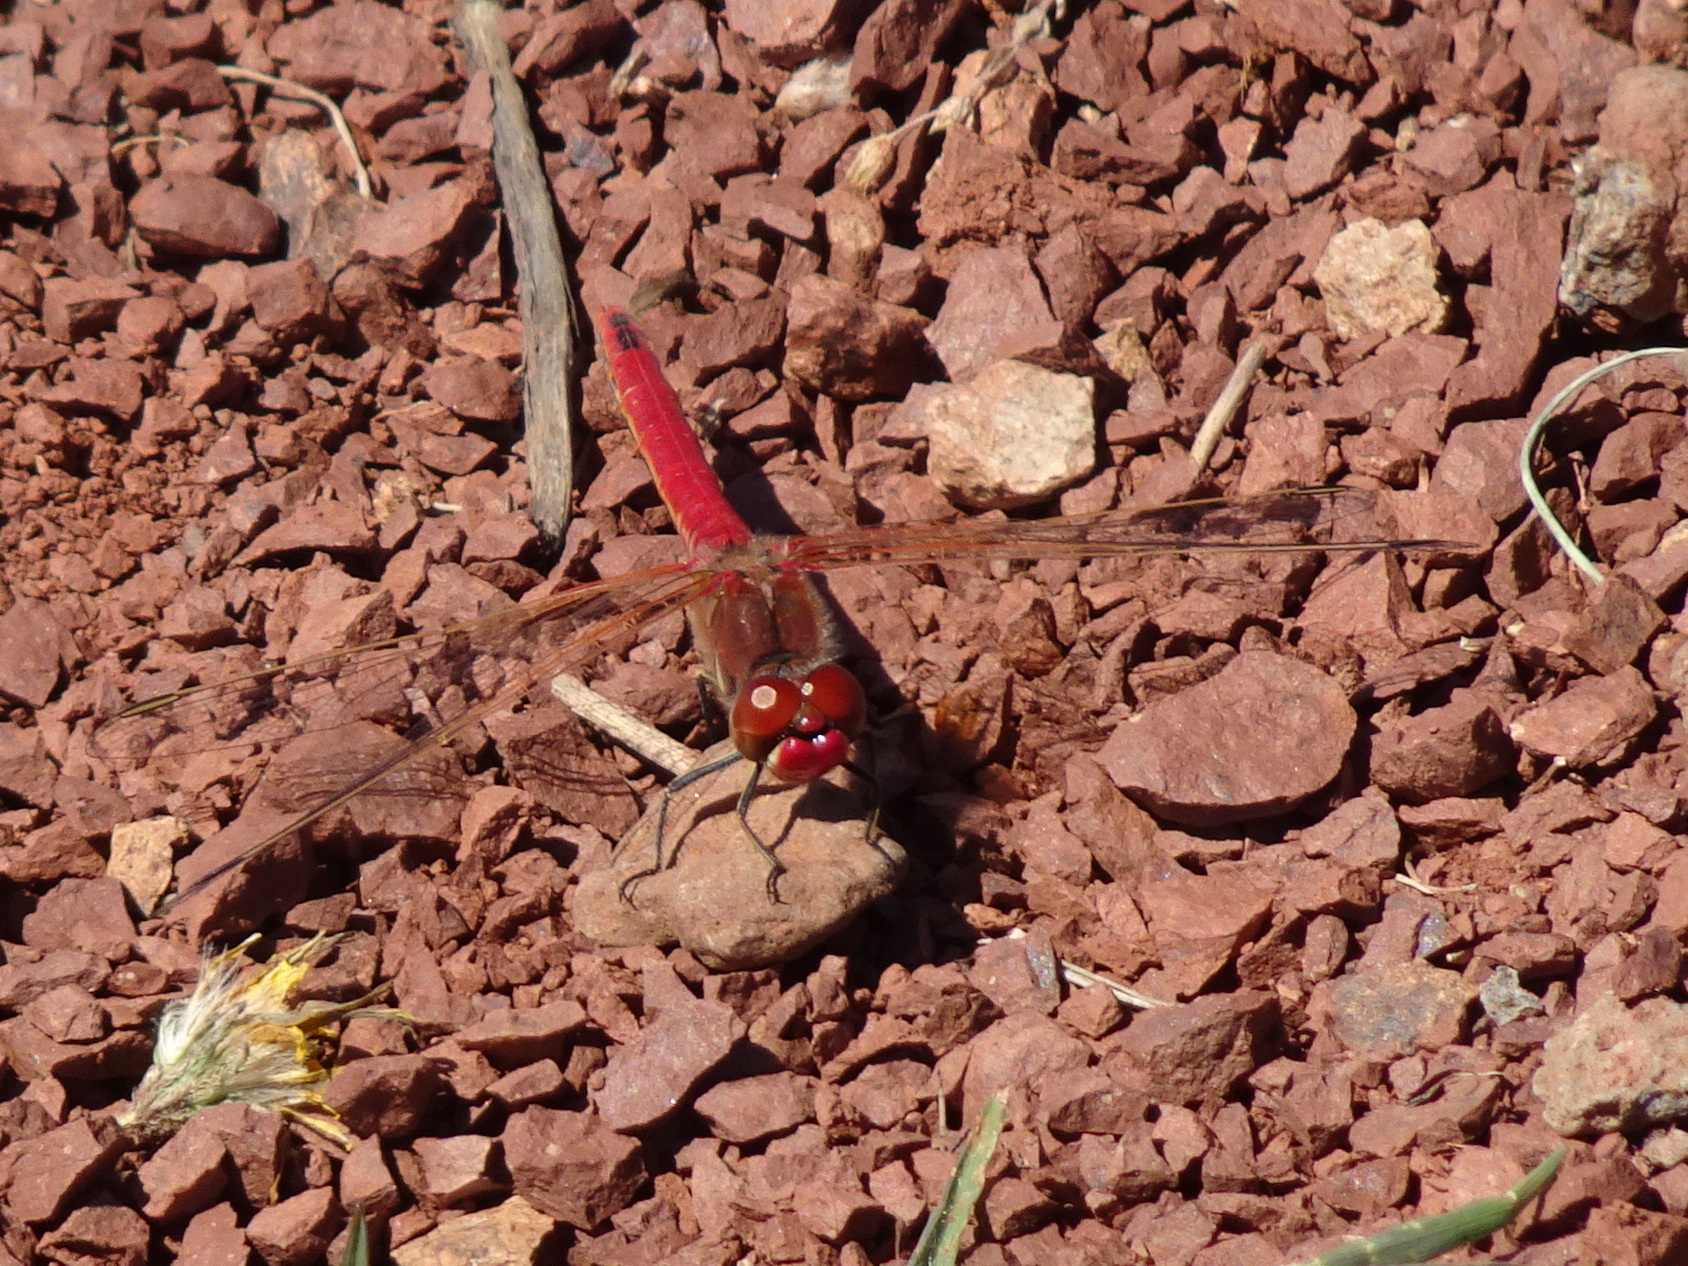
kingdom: Animalia
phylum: Arthropoda
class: Insecta
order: Odonata
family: Libellulidae
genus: Sympetrum
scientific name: Sympetrum fonscolombii
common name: Red-veined darter
